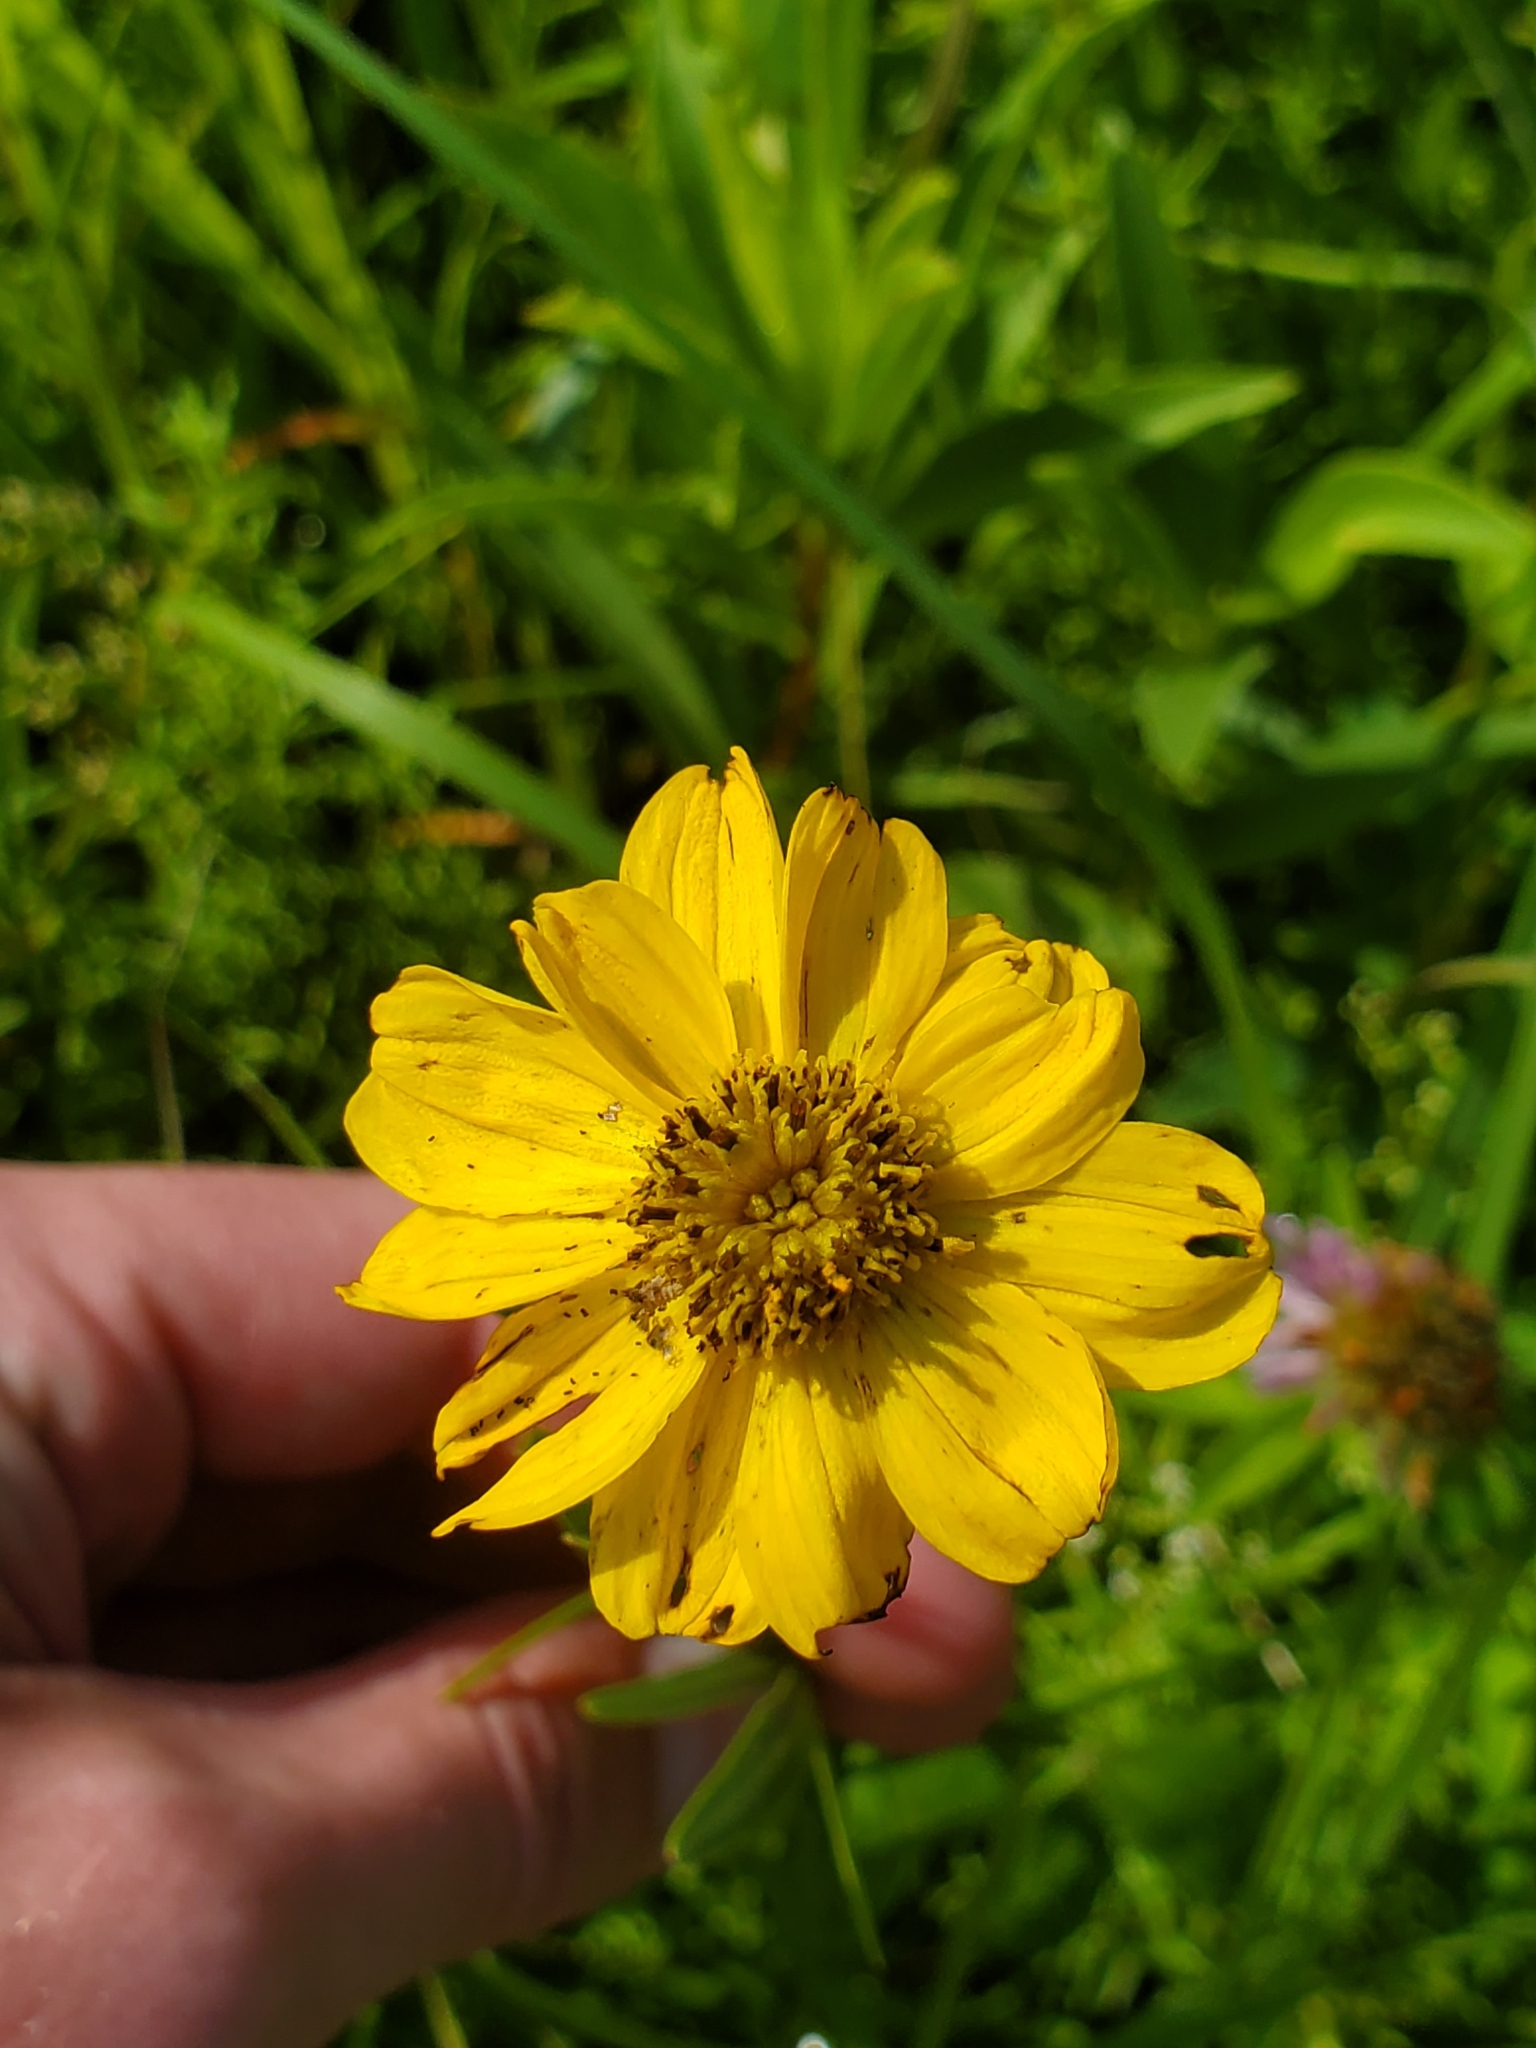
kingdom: Plantae
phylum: Tracheophyta
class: Magnoliopsida
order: Asterales
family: Asteraceae
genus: Coreopsis
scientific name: Coreopsis palmata
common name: Prairie coreopsis
